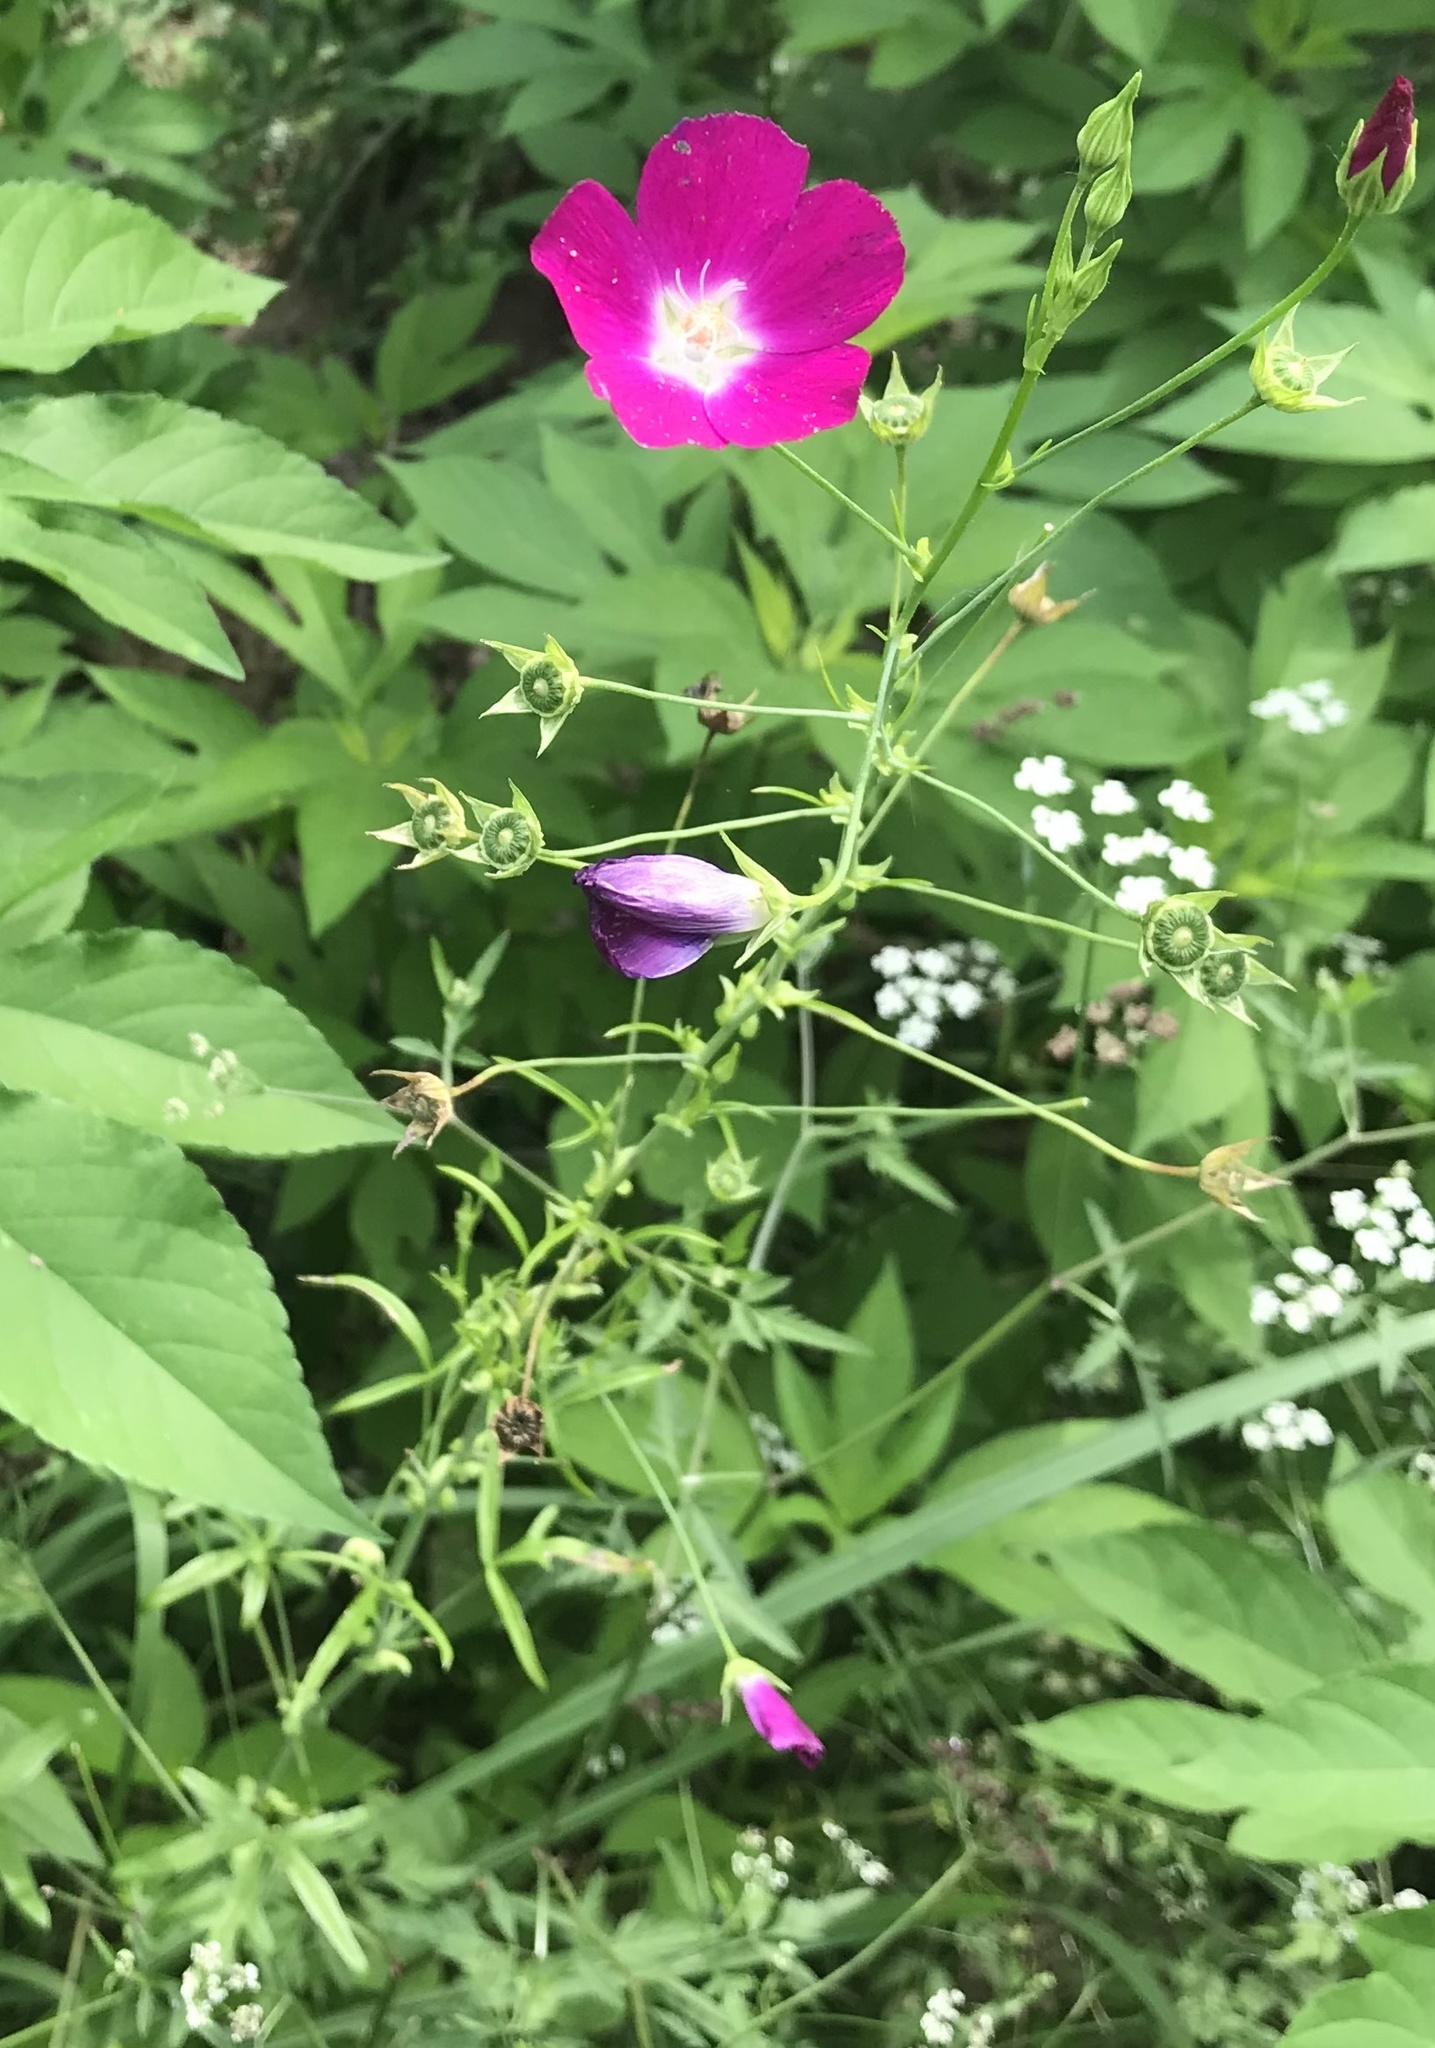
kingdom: Plantae
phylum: Tracheophyta
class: Magnoliopsida
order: Malvales
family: Malvaceae
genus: Callirhoe
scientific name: Callirhoe leiocarpa
